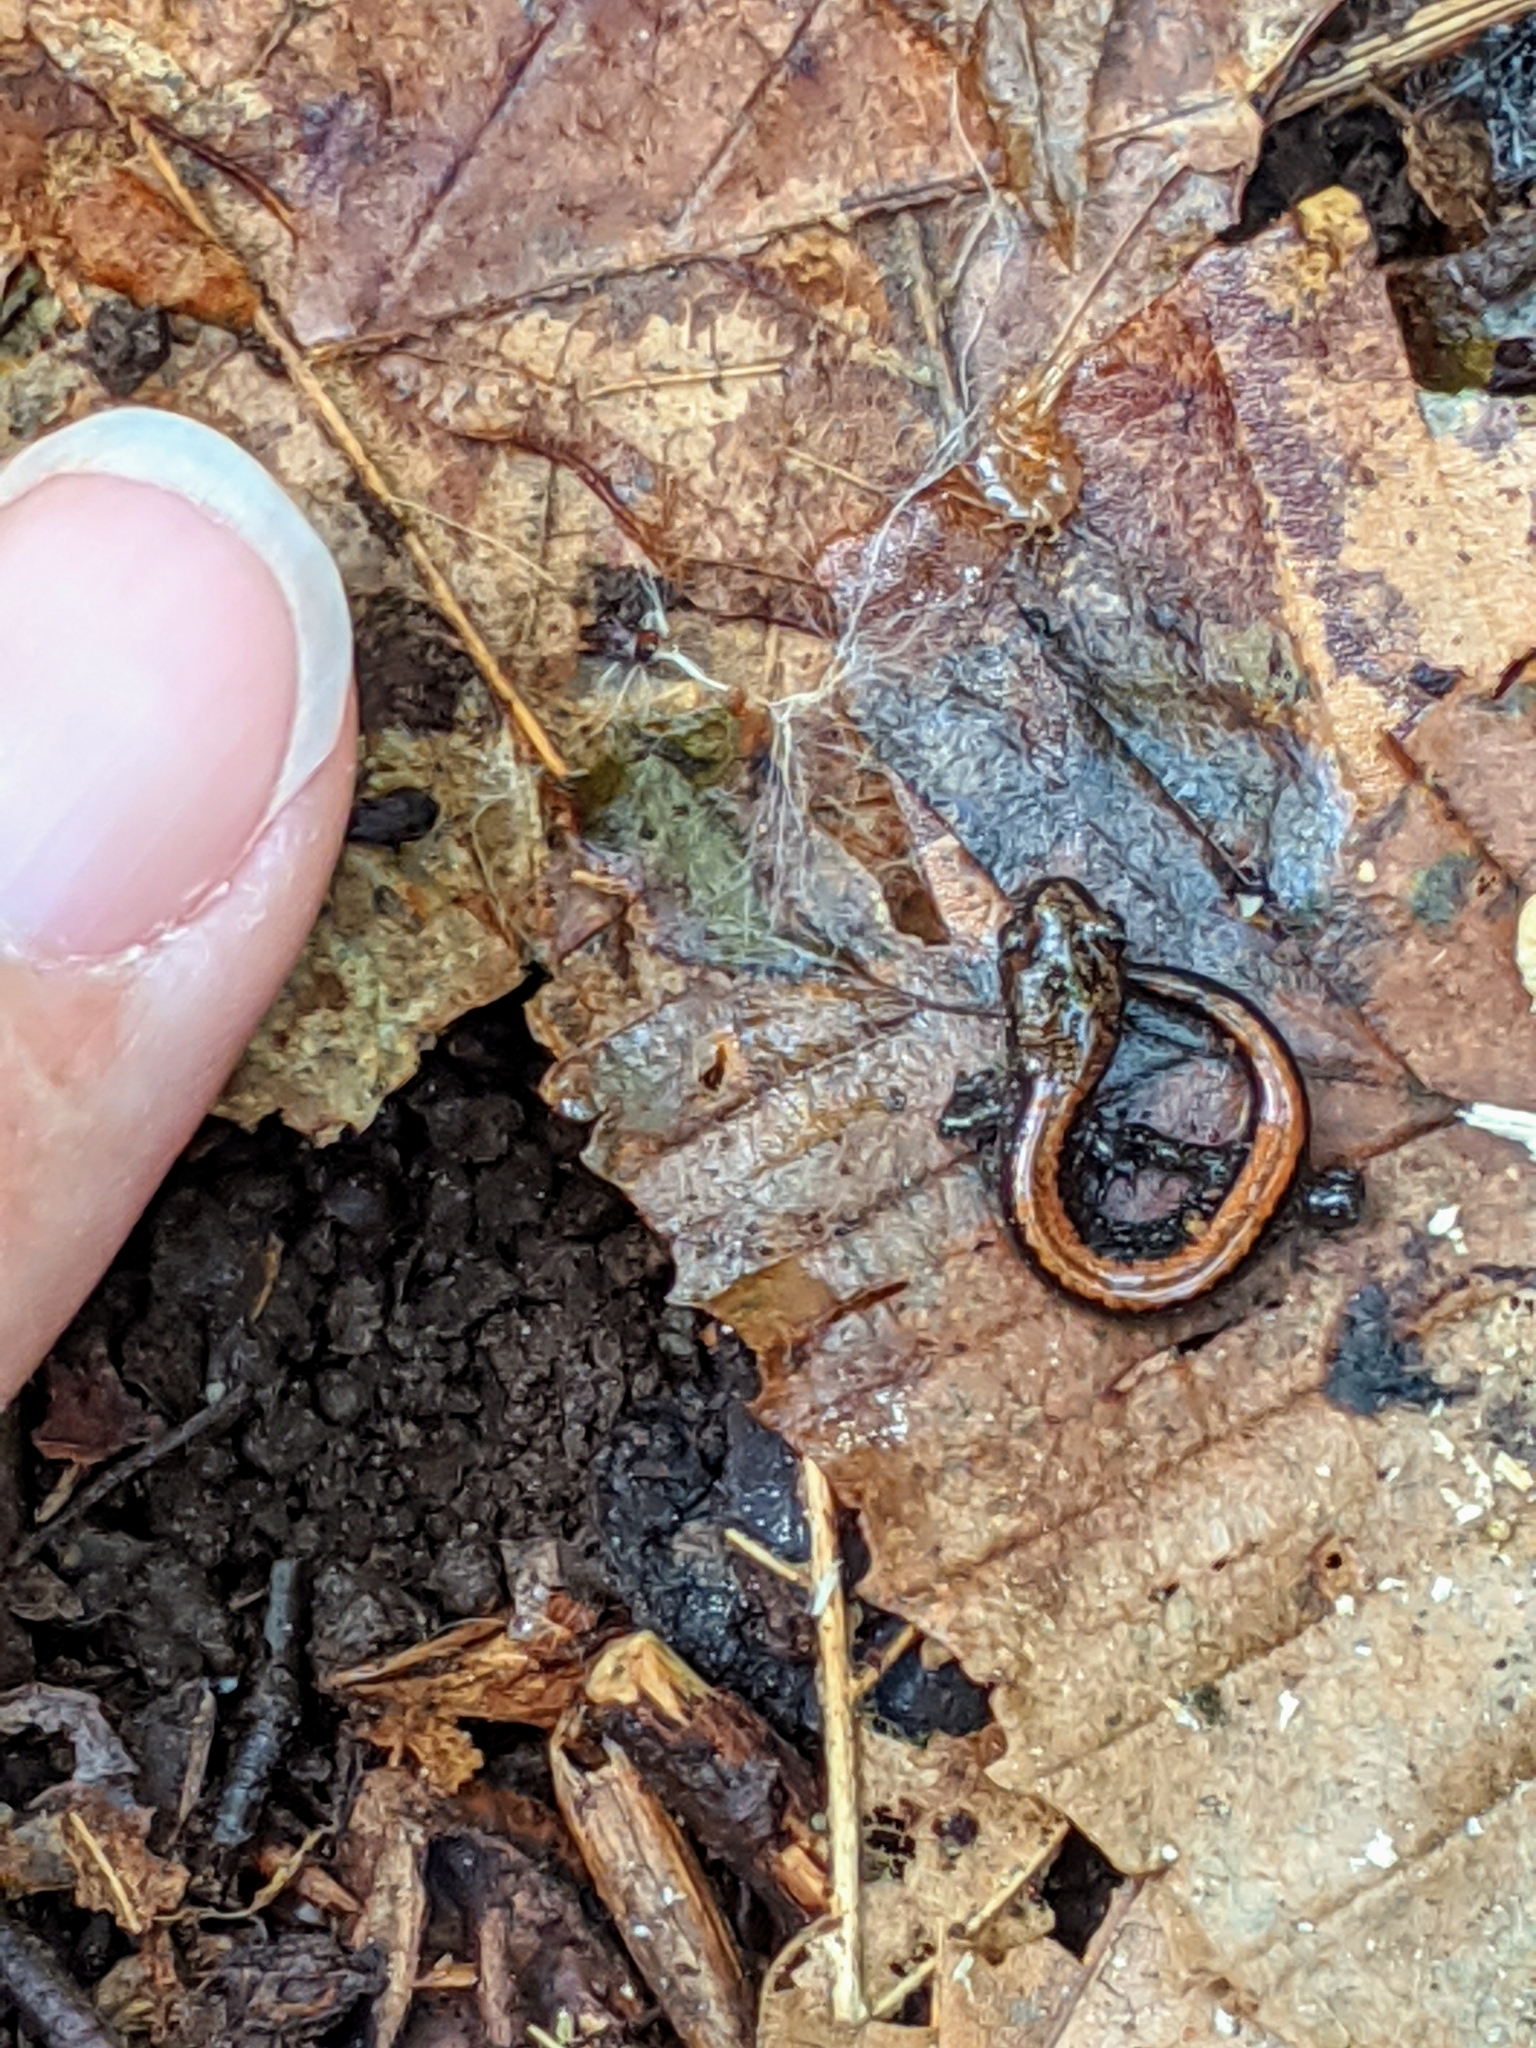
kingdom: Animalia
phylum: Chordata
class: Amphibia
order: Caudata
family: Plethodontidae
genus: Plethodon
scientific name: Plethodon cinereus
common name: Redback salamander
